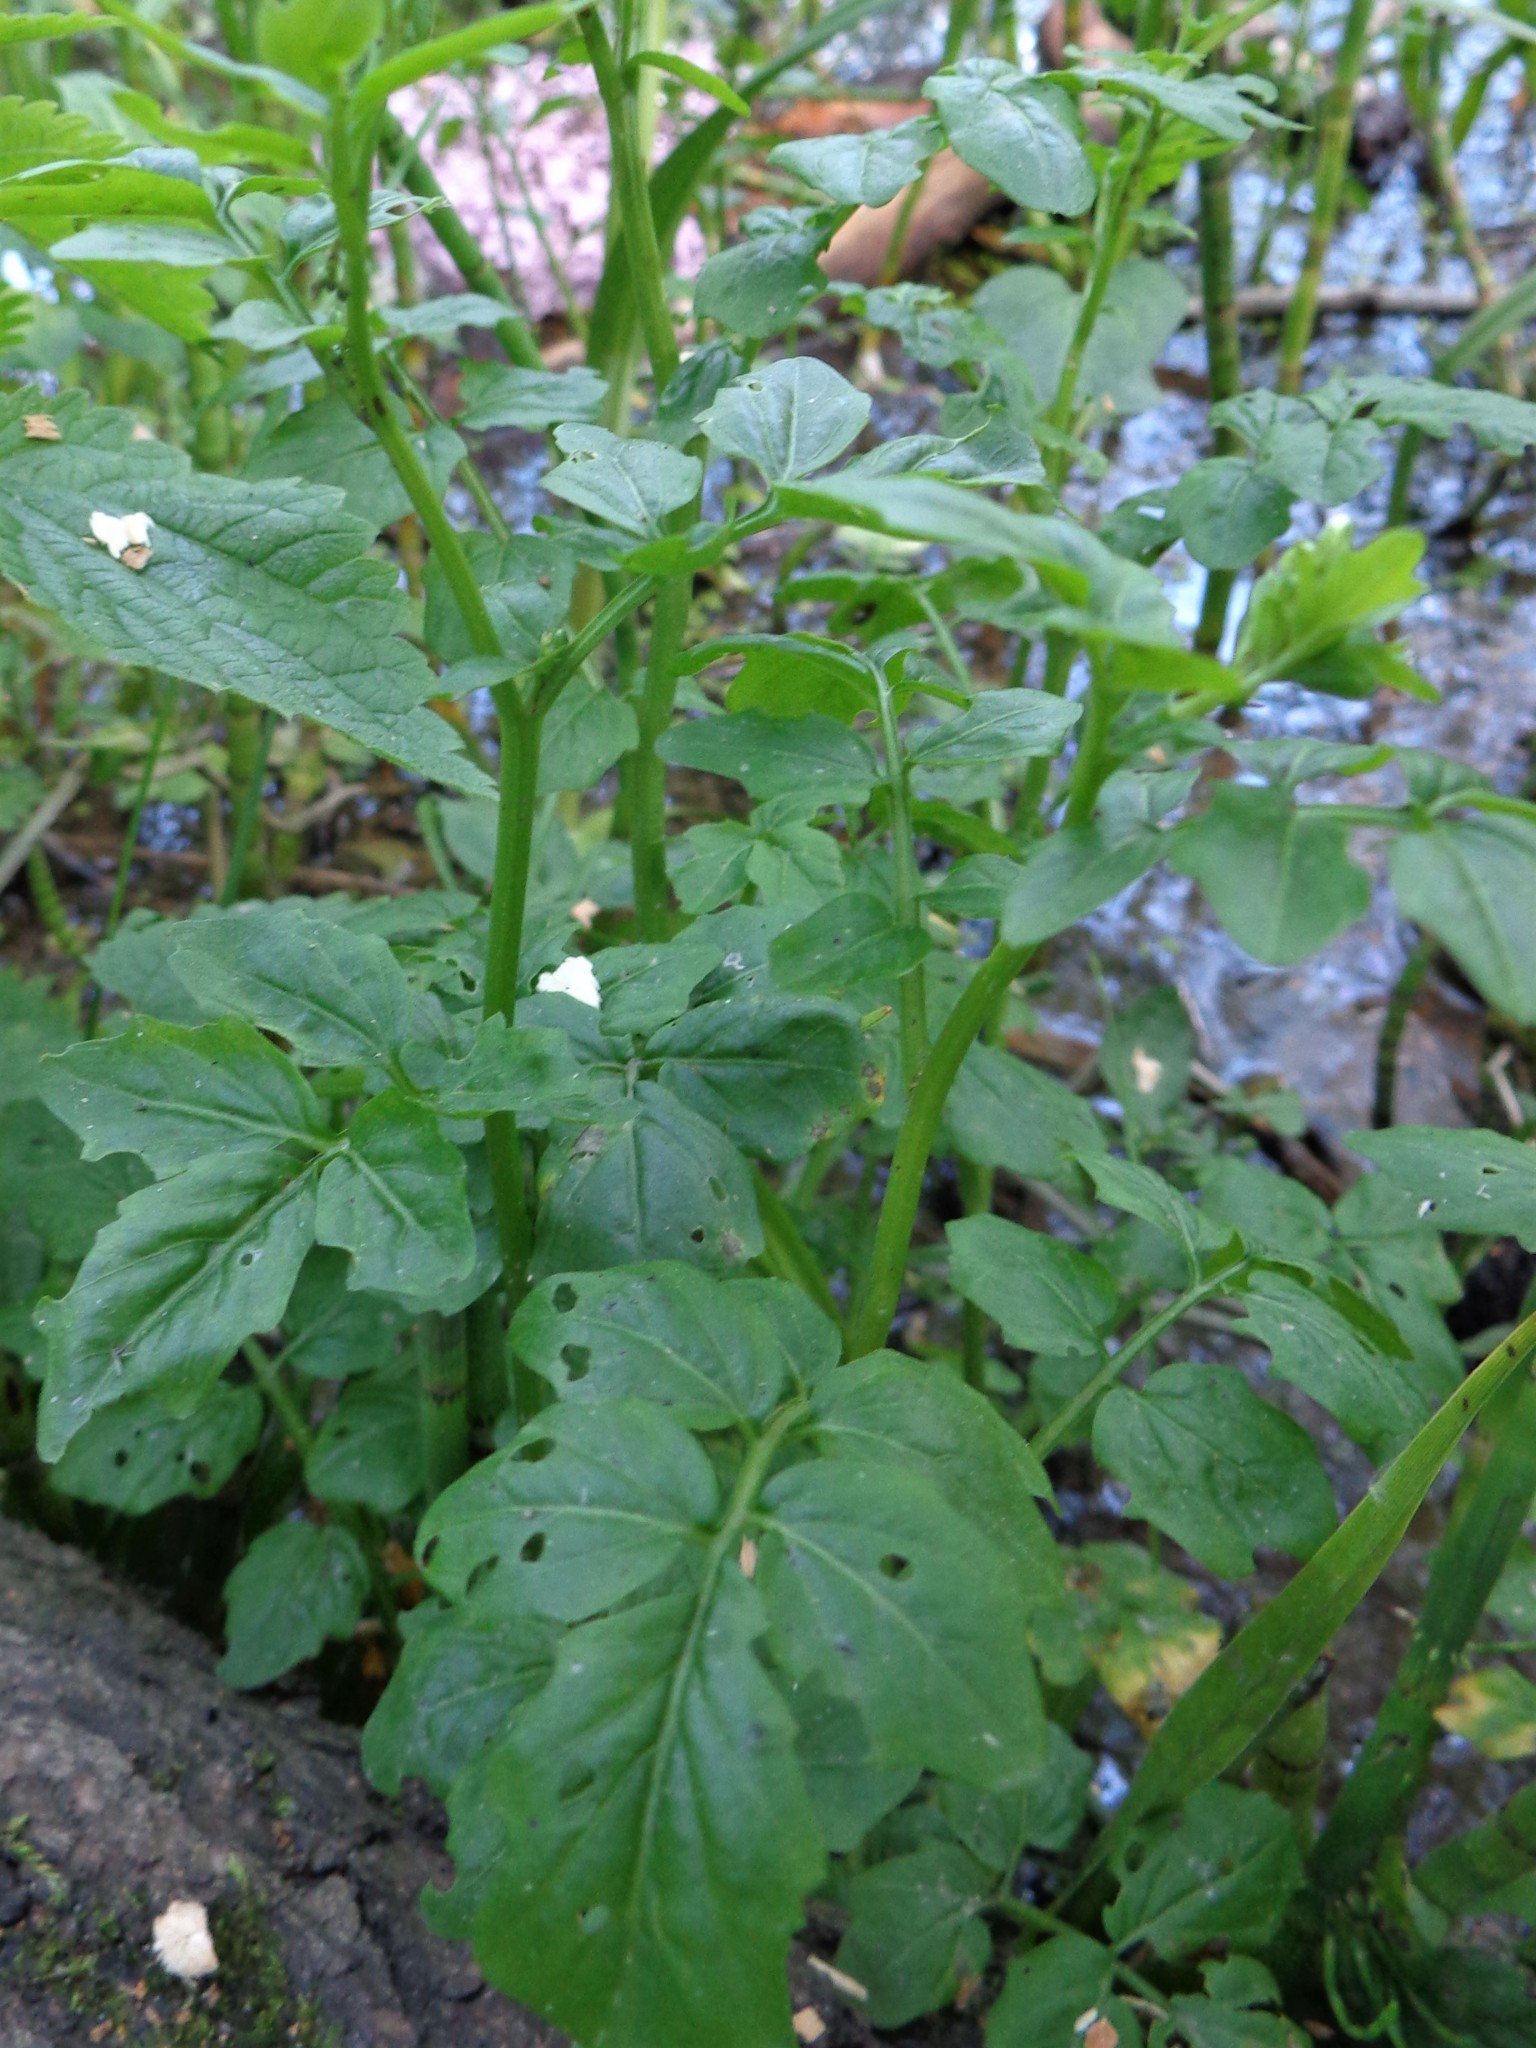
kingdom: Plantae
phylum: Tracheophyta
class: Magnoliopsida
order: Brassicales
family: Brassicaceae
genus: Cardamine
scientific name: Cardamine amara
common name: Large bitter-cress
